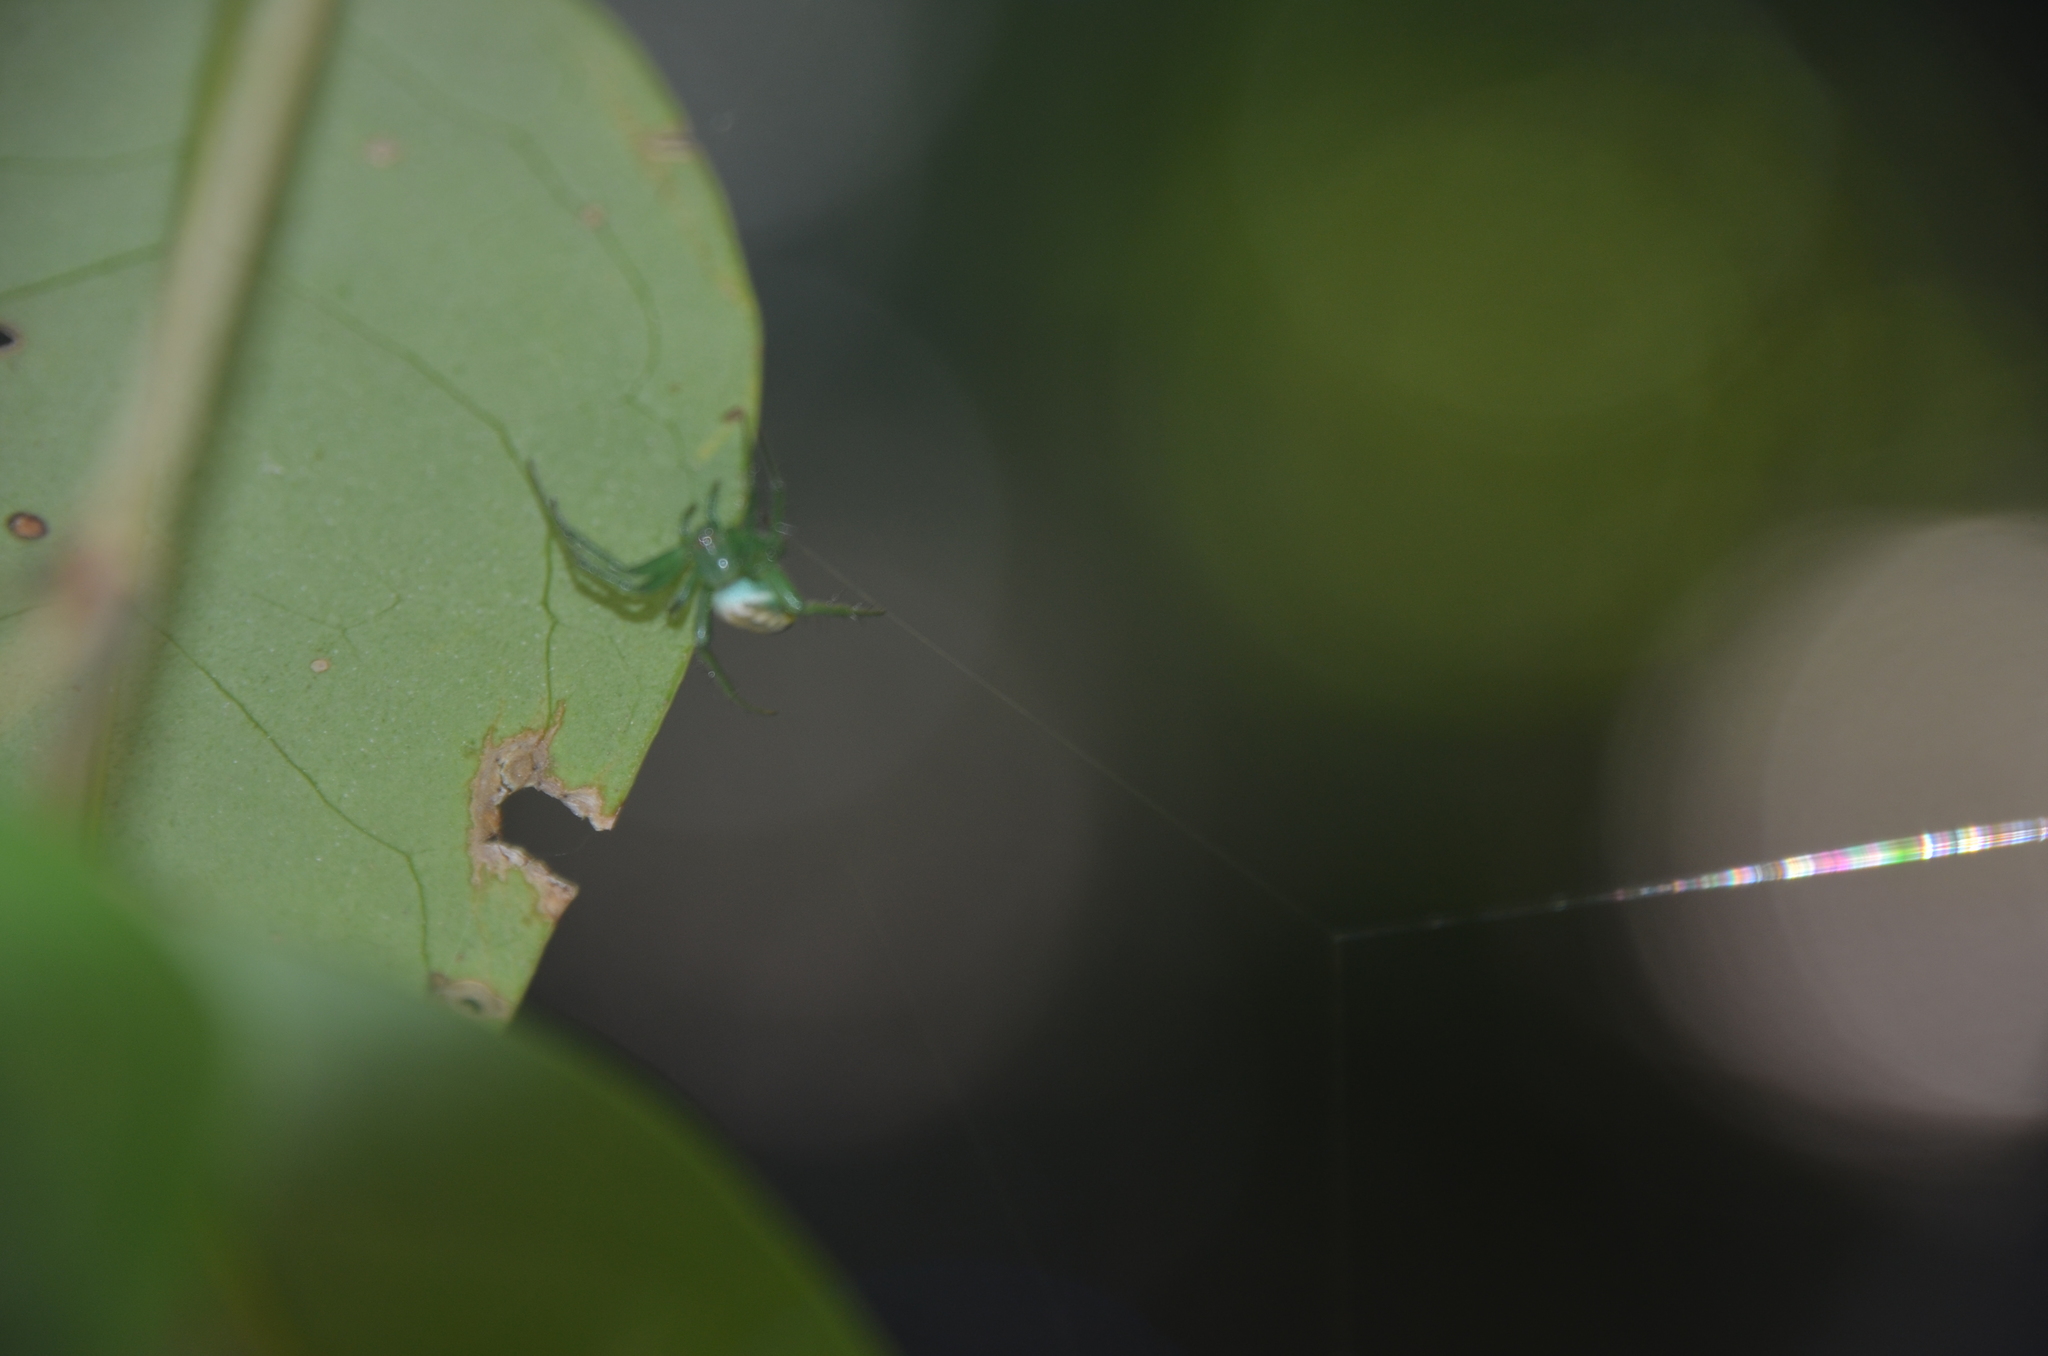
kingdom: Animalia
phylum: Arthropoda
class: Arachnida
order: Araneae
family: Araneidae
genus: Mangora
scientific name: Mangora lactea
